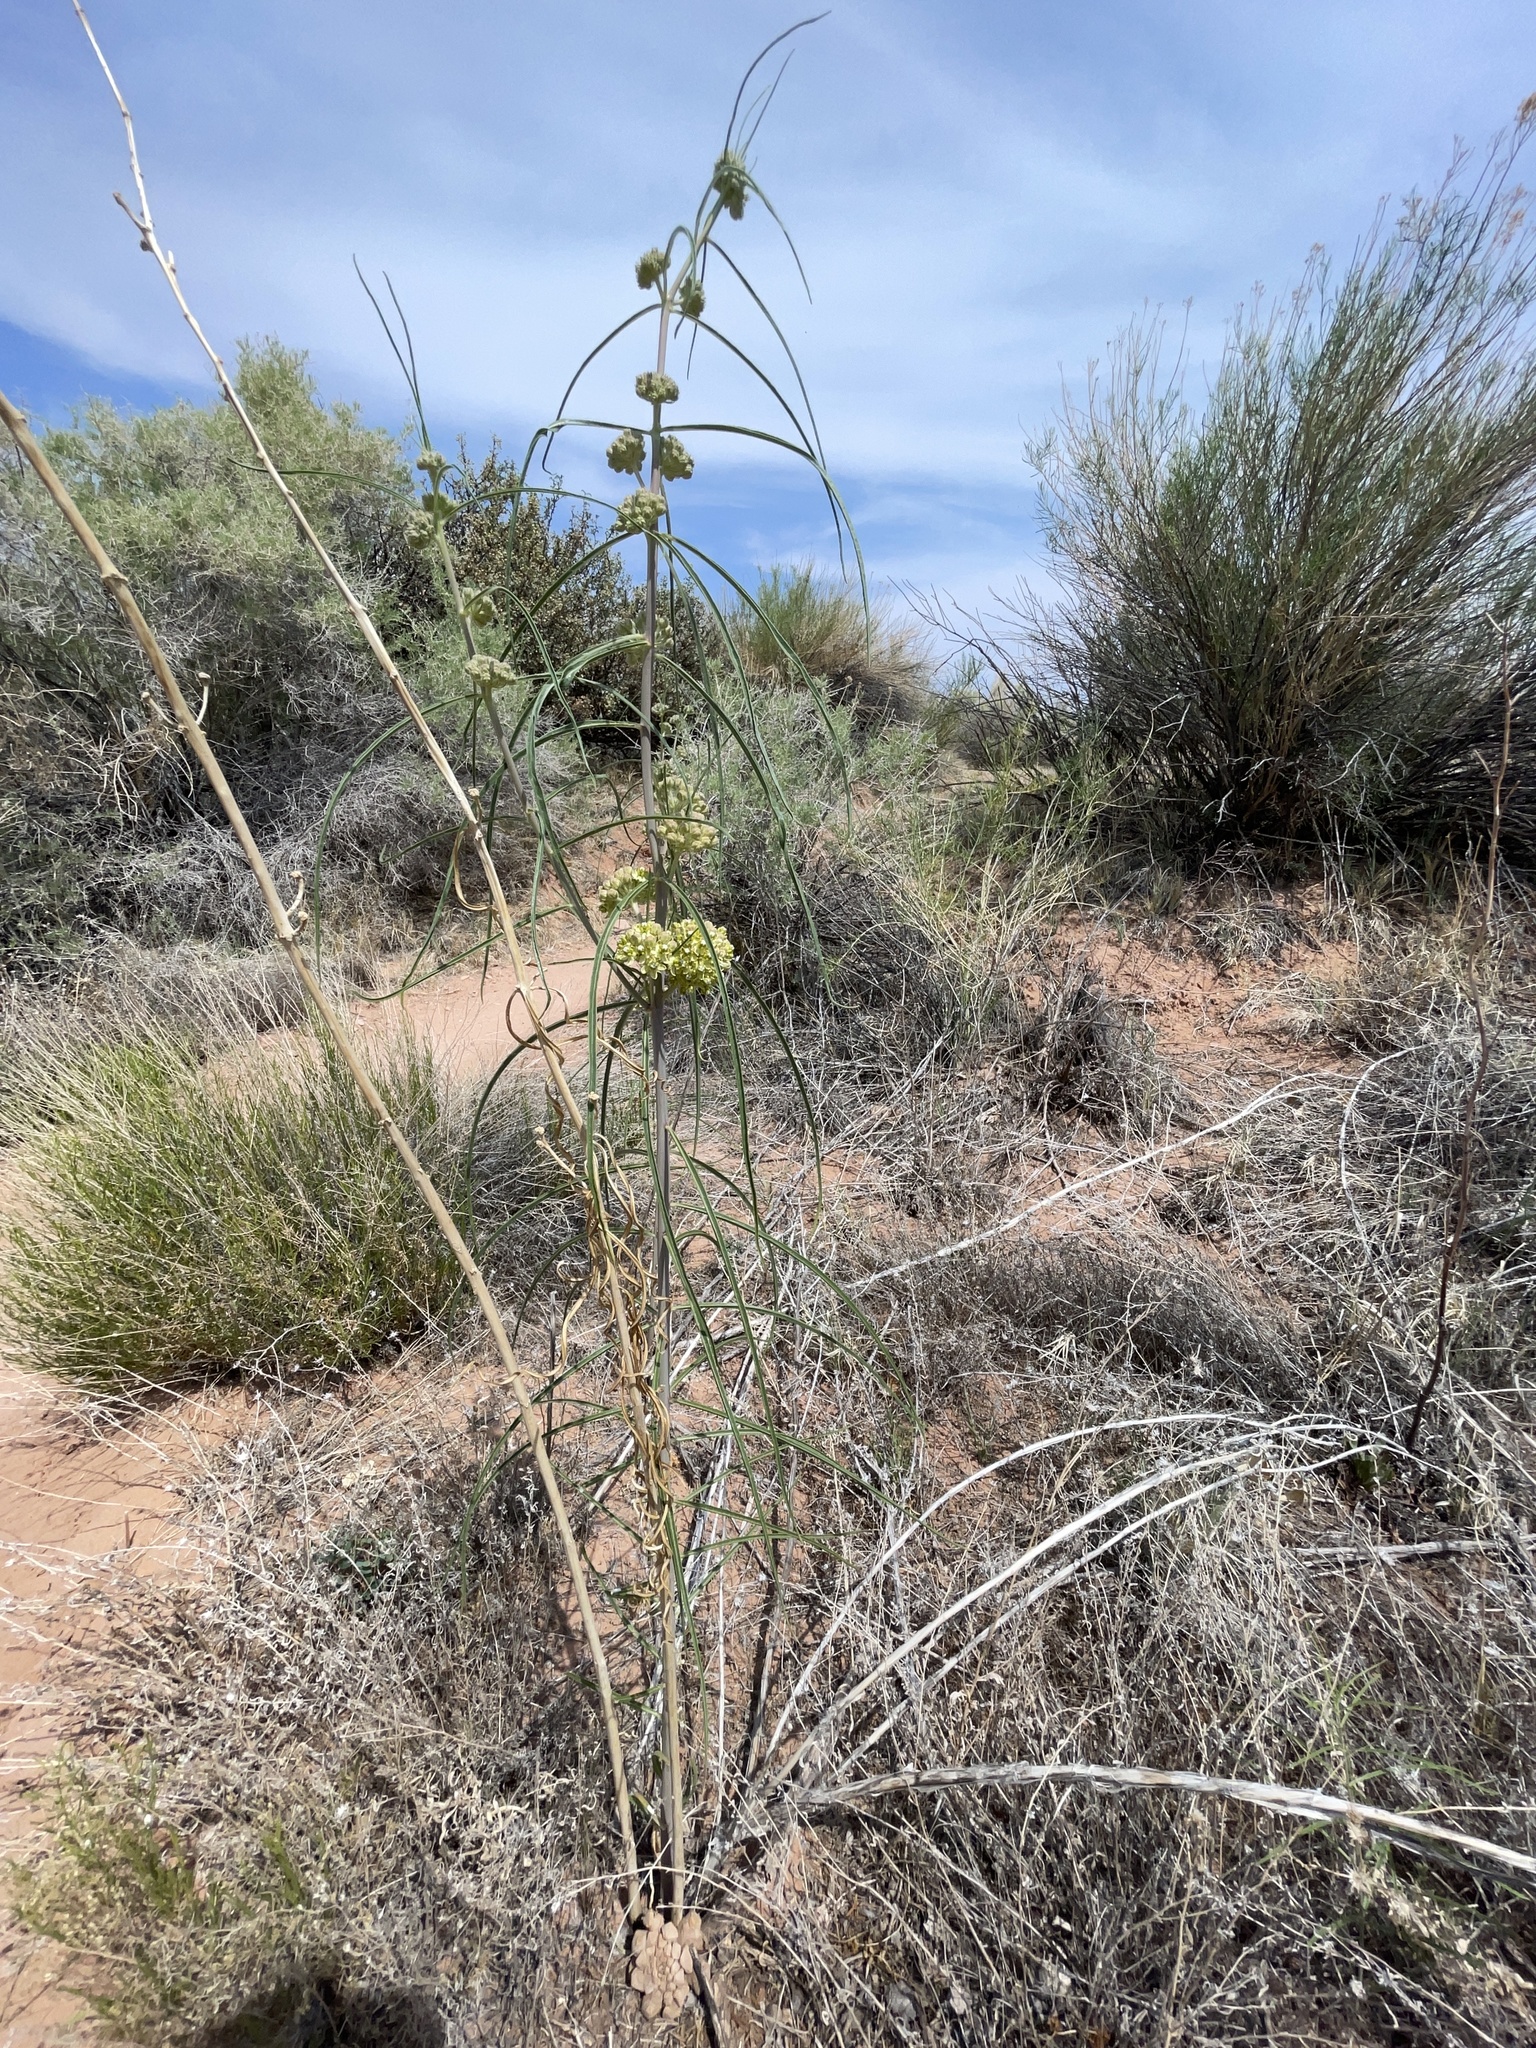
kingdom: Plantae
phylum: Tracheophyta
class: Magnoliopsida
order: Gentianales
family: Apocynaceae
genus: Asclepias
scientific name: Asclepias rusbyi
